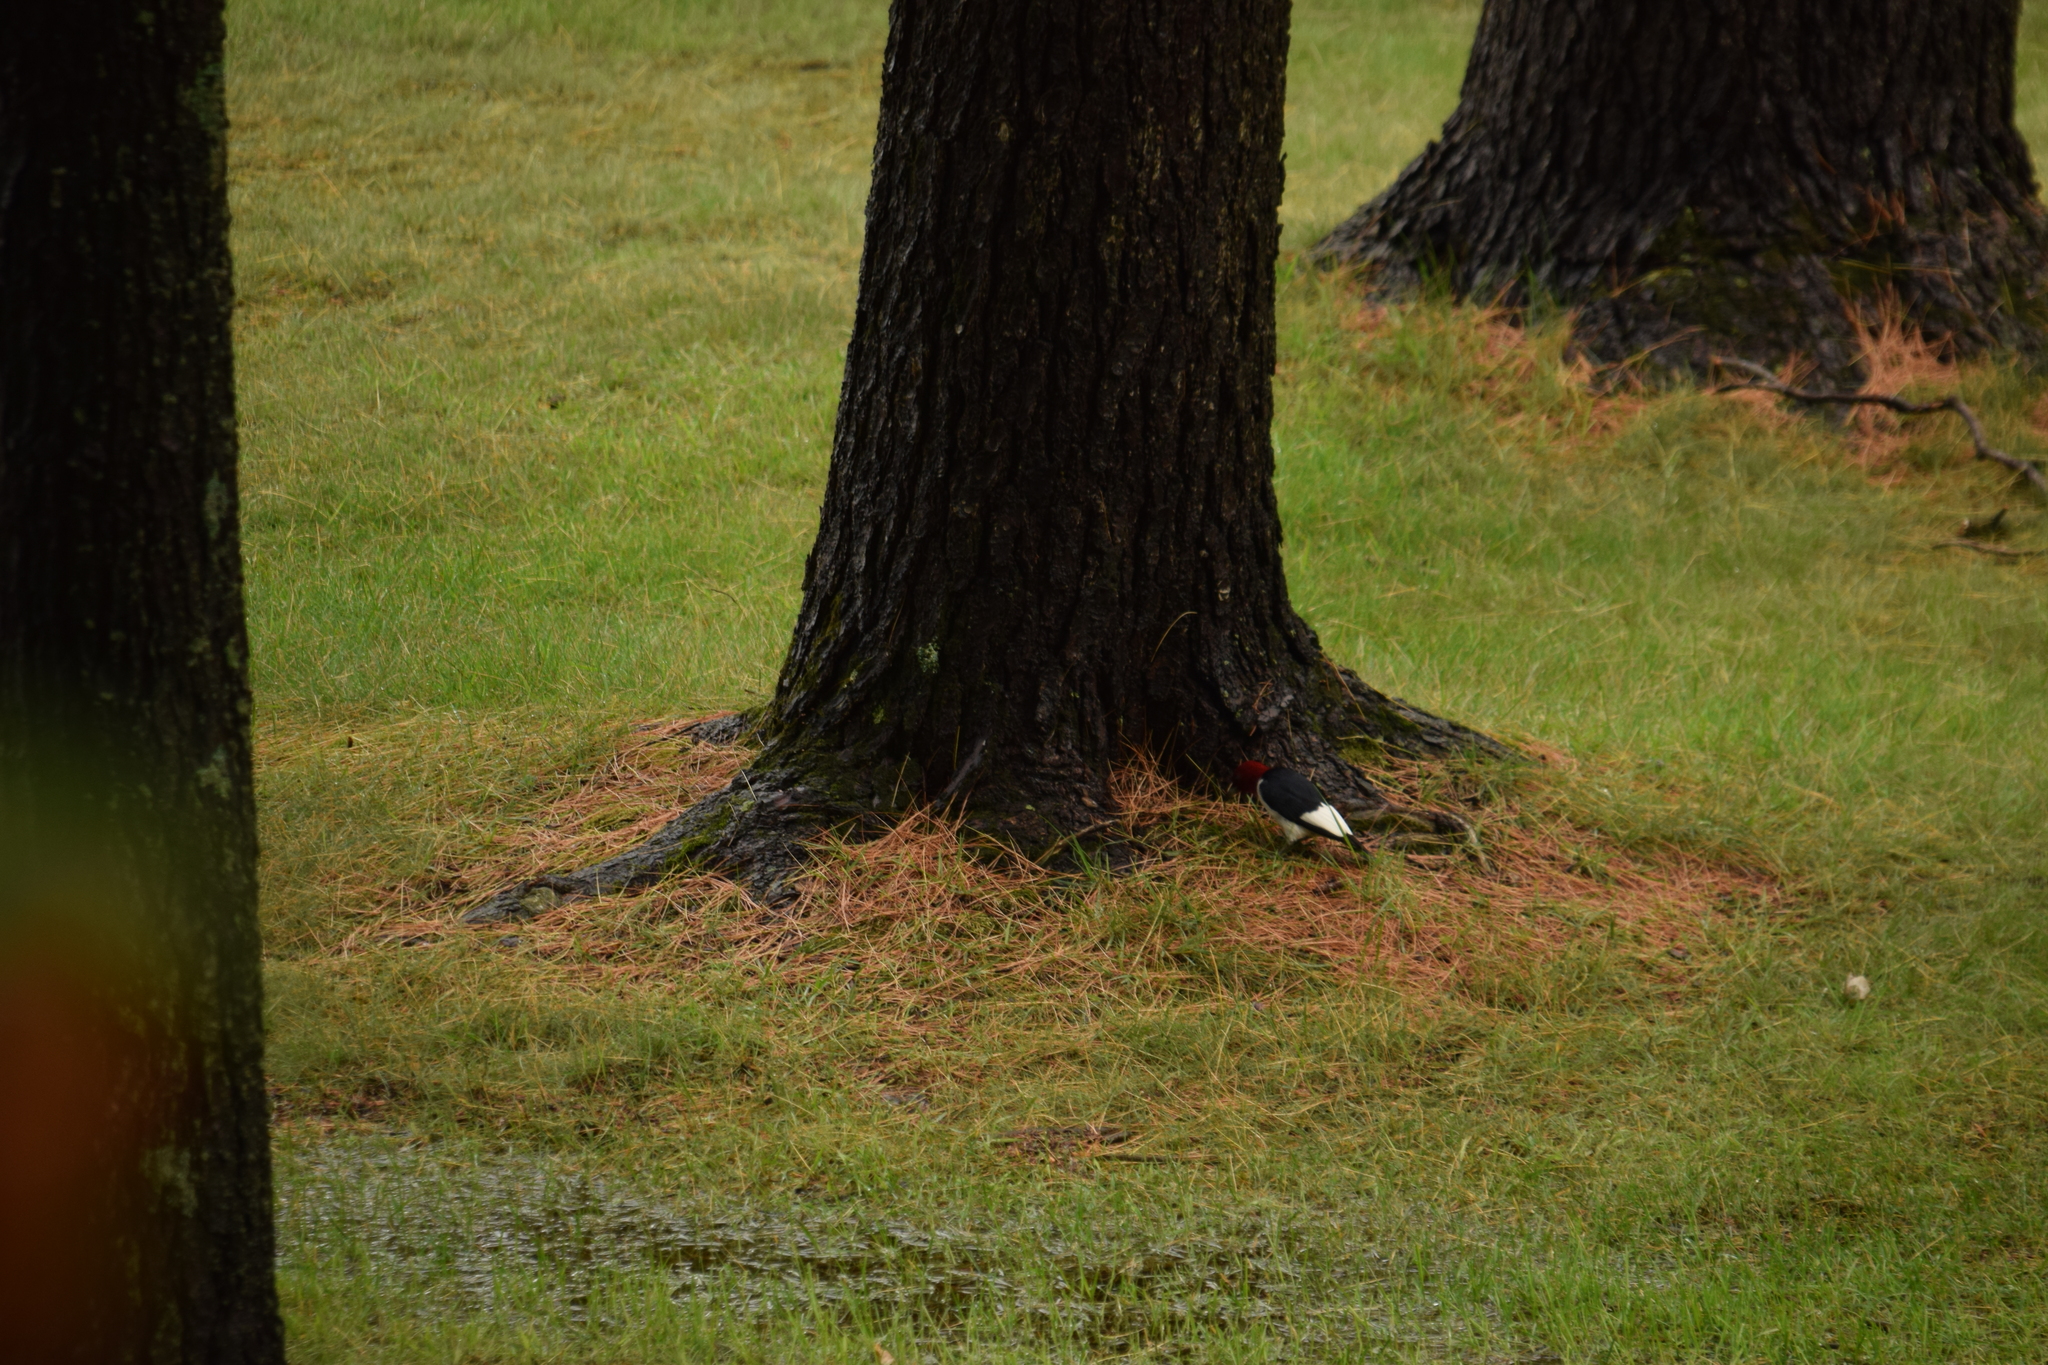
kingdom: Animalia
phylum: Chordata
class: Aves
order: Piciformes
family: Picidae
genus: Melanerpes
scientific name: Melanerpes erythrocephalus
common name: Red-headed woodpecker
